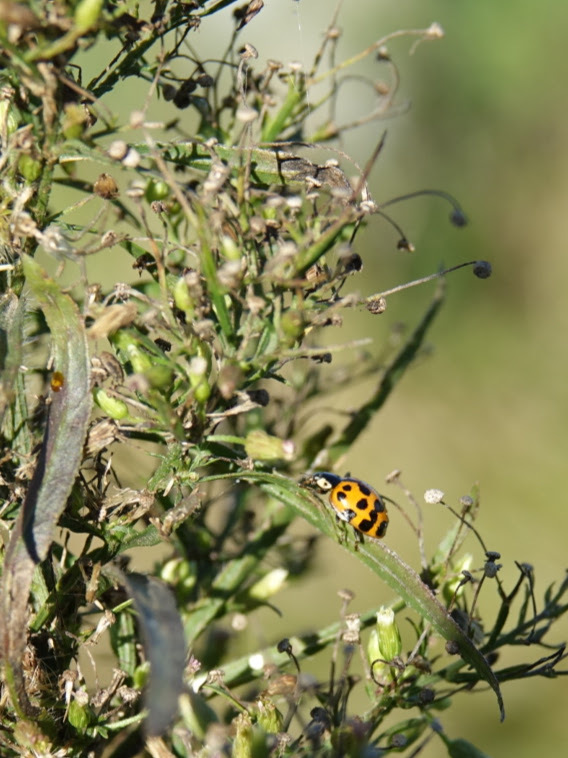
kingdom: Animalia
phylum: Arthropoda
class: Insecta
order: Coleoptera
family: Coccinellidae
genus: Harmonia
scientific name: Harmonia axyridis
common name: Harlequin ladybird
